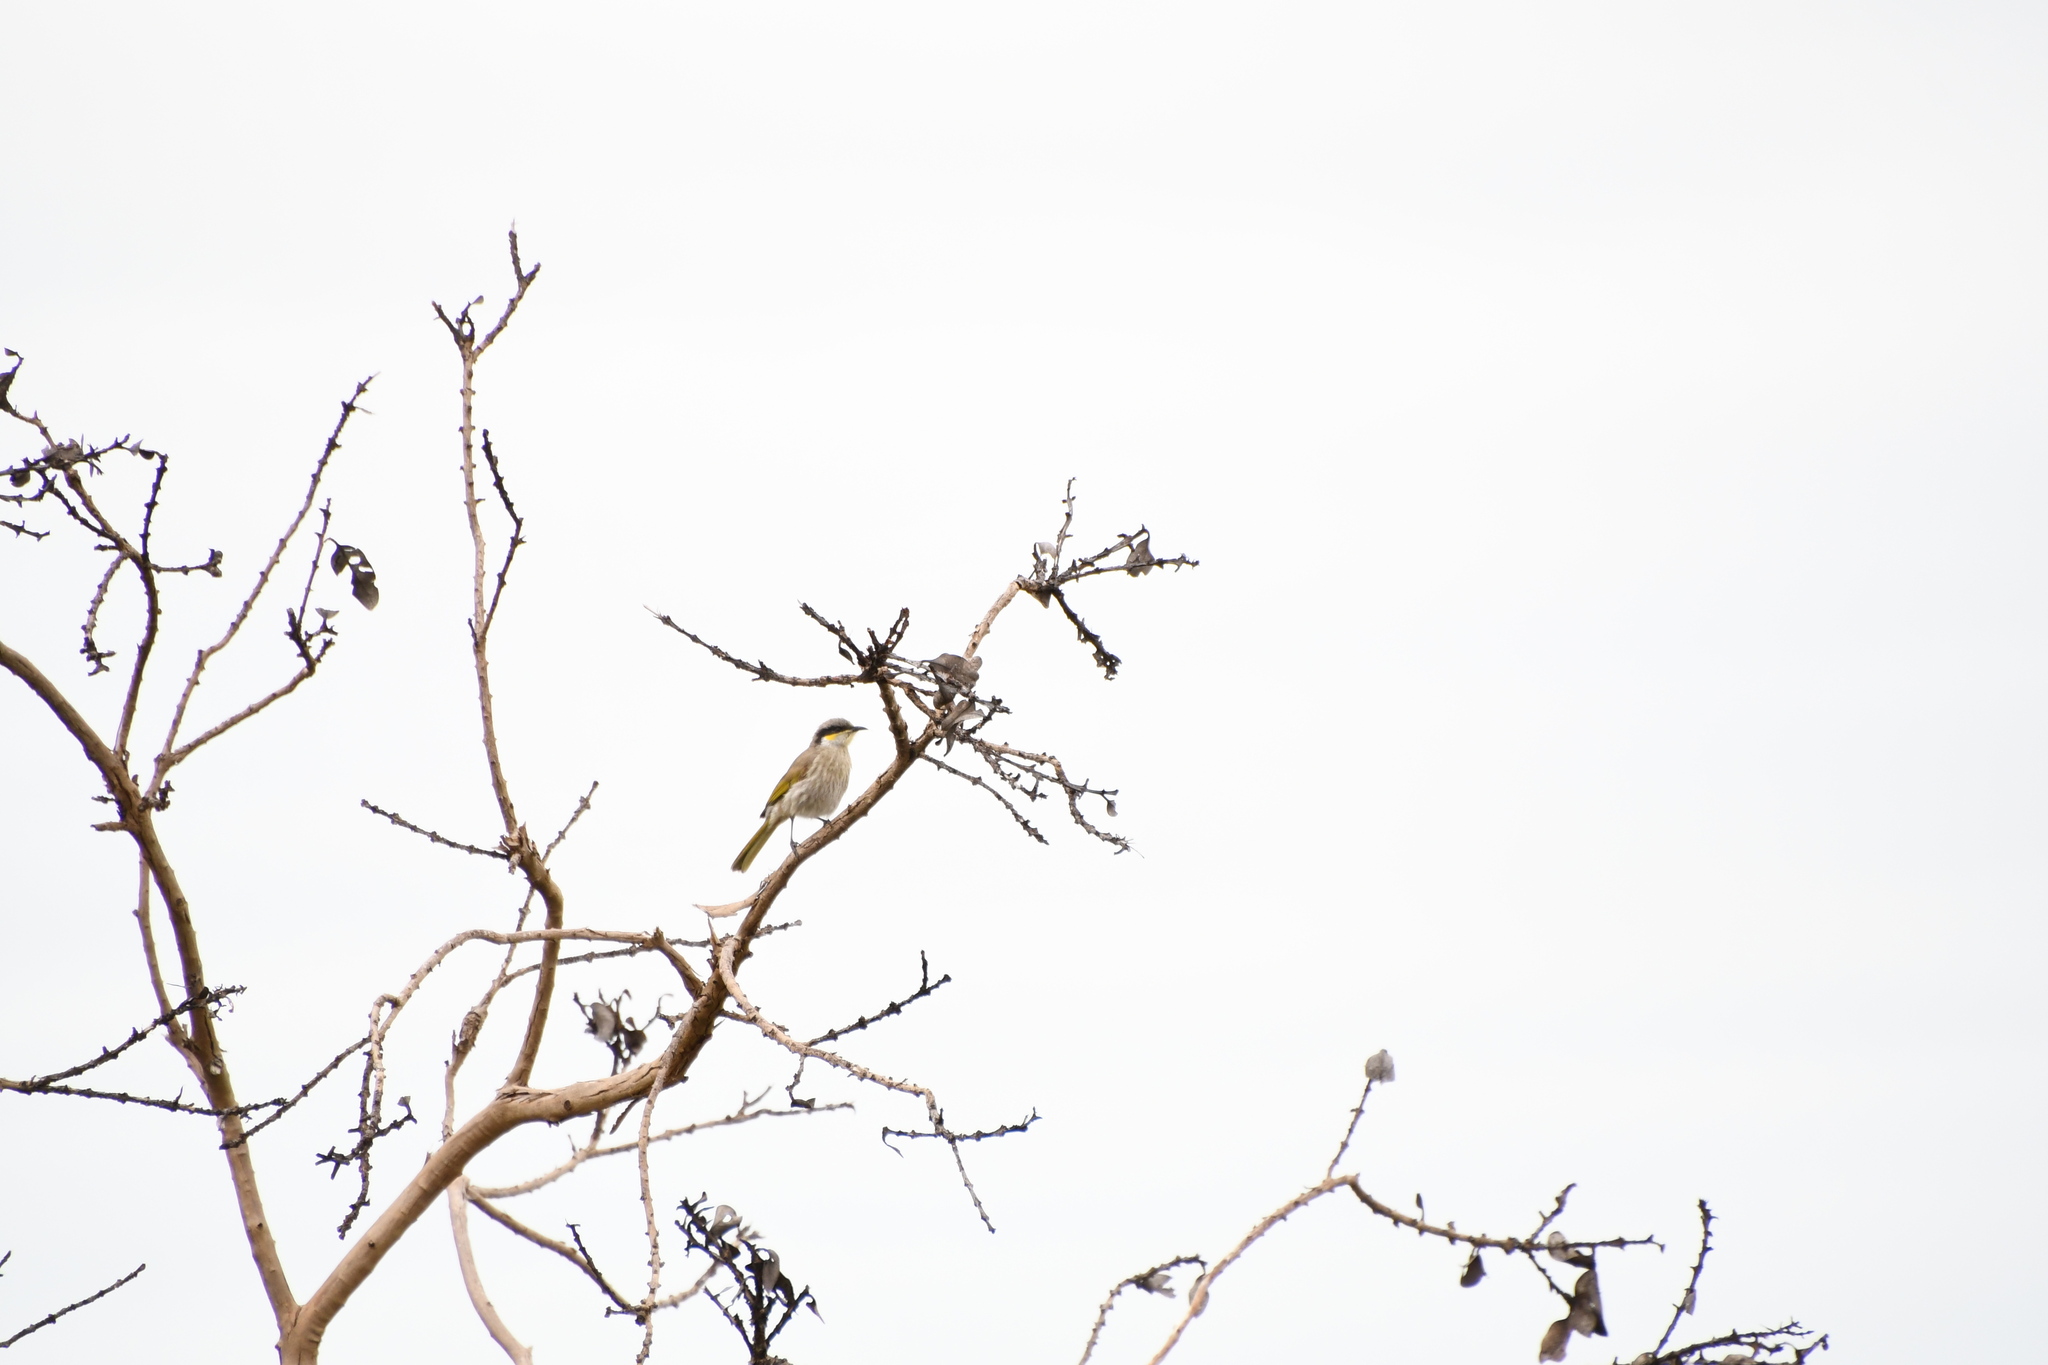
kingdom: Animalia
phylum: Chordata
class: Aves
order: Passeriformes
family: Meliphagidae
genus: Gavicalis
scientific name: Gavicalis virescens
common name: Singing honeyeater
